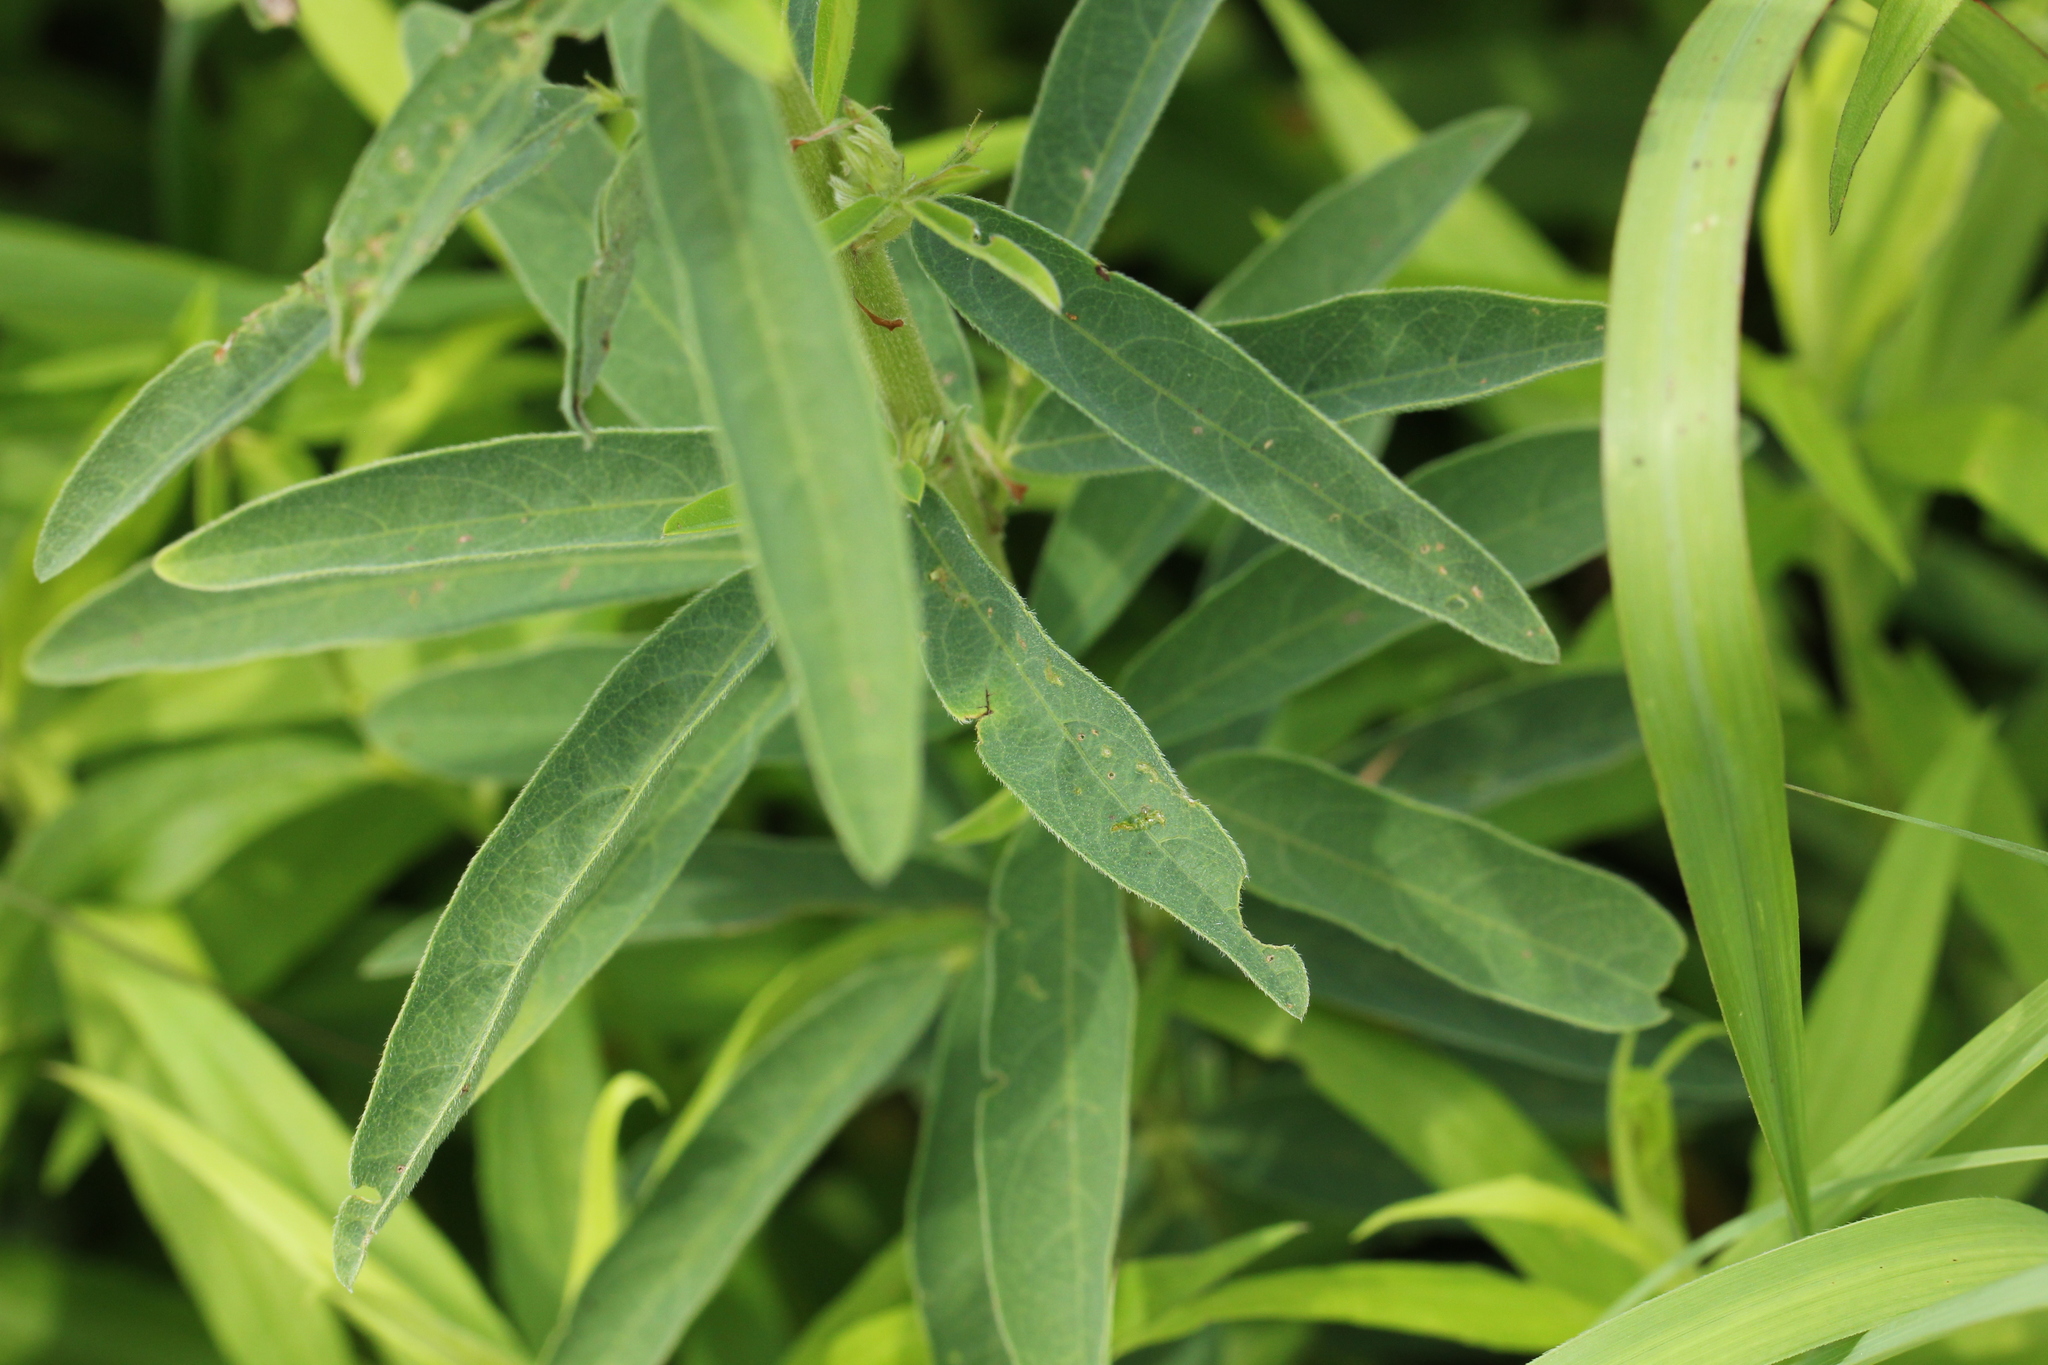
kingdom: Plantae
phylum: Tracheophyta
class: Magnoliopsida
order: Fabales
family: Fabaceae
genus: Desmodium
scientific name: Desmodium sessilifolium
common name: Sessile tick-clover
